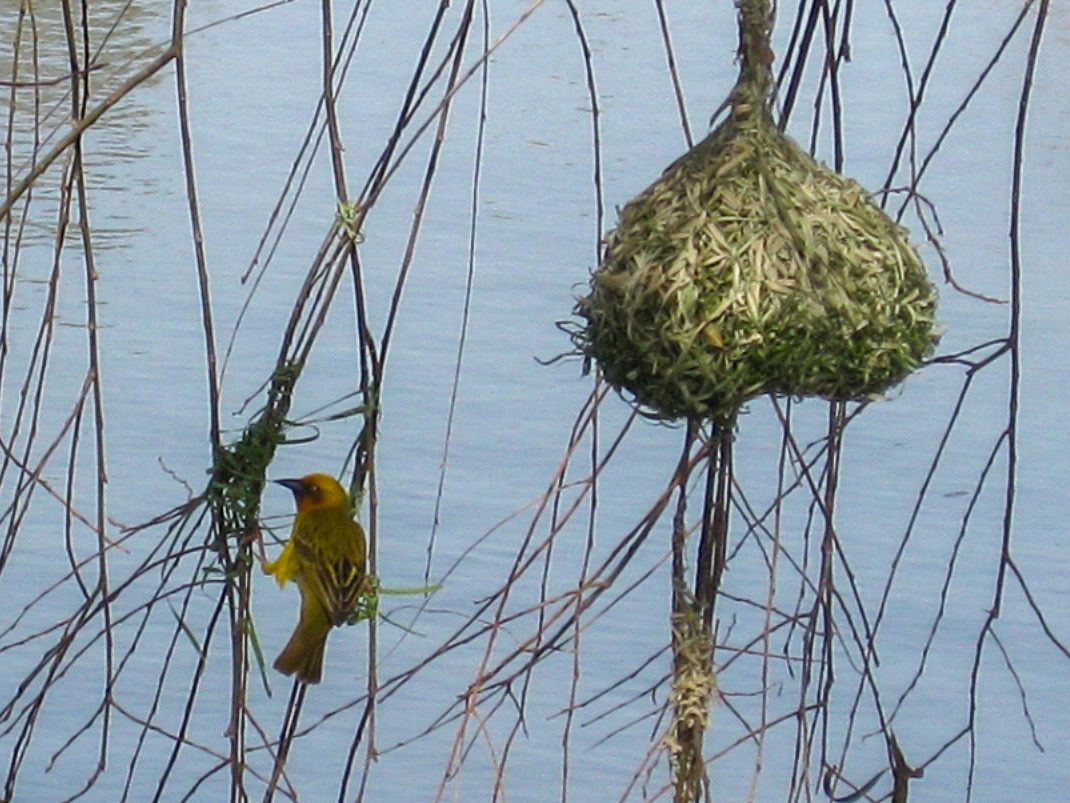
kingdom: Animalia
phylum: Chordata
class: Aves
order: Passeriformes
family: Ploceidae
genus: Ploceus
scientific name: Ploceus capensis
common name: Cape weaver
